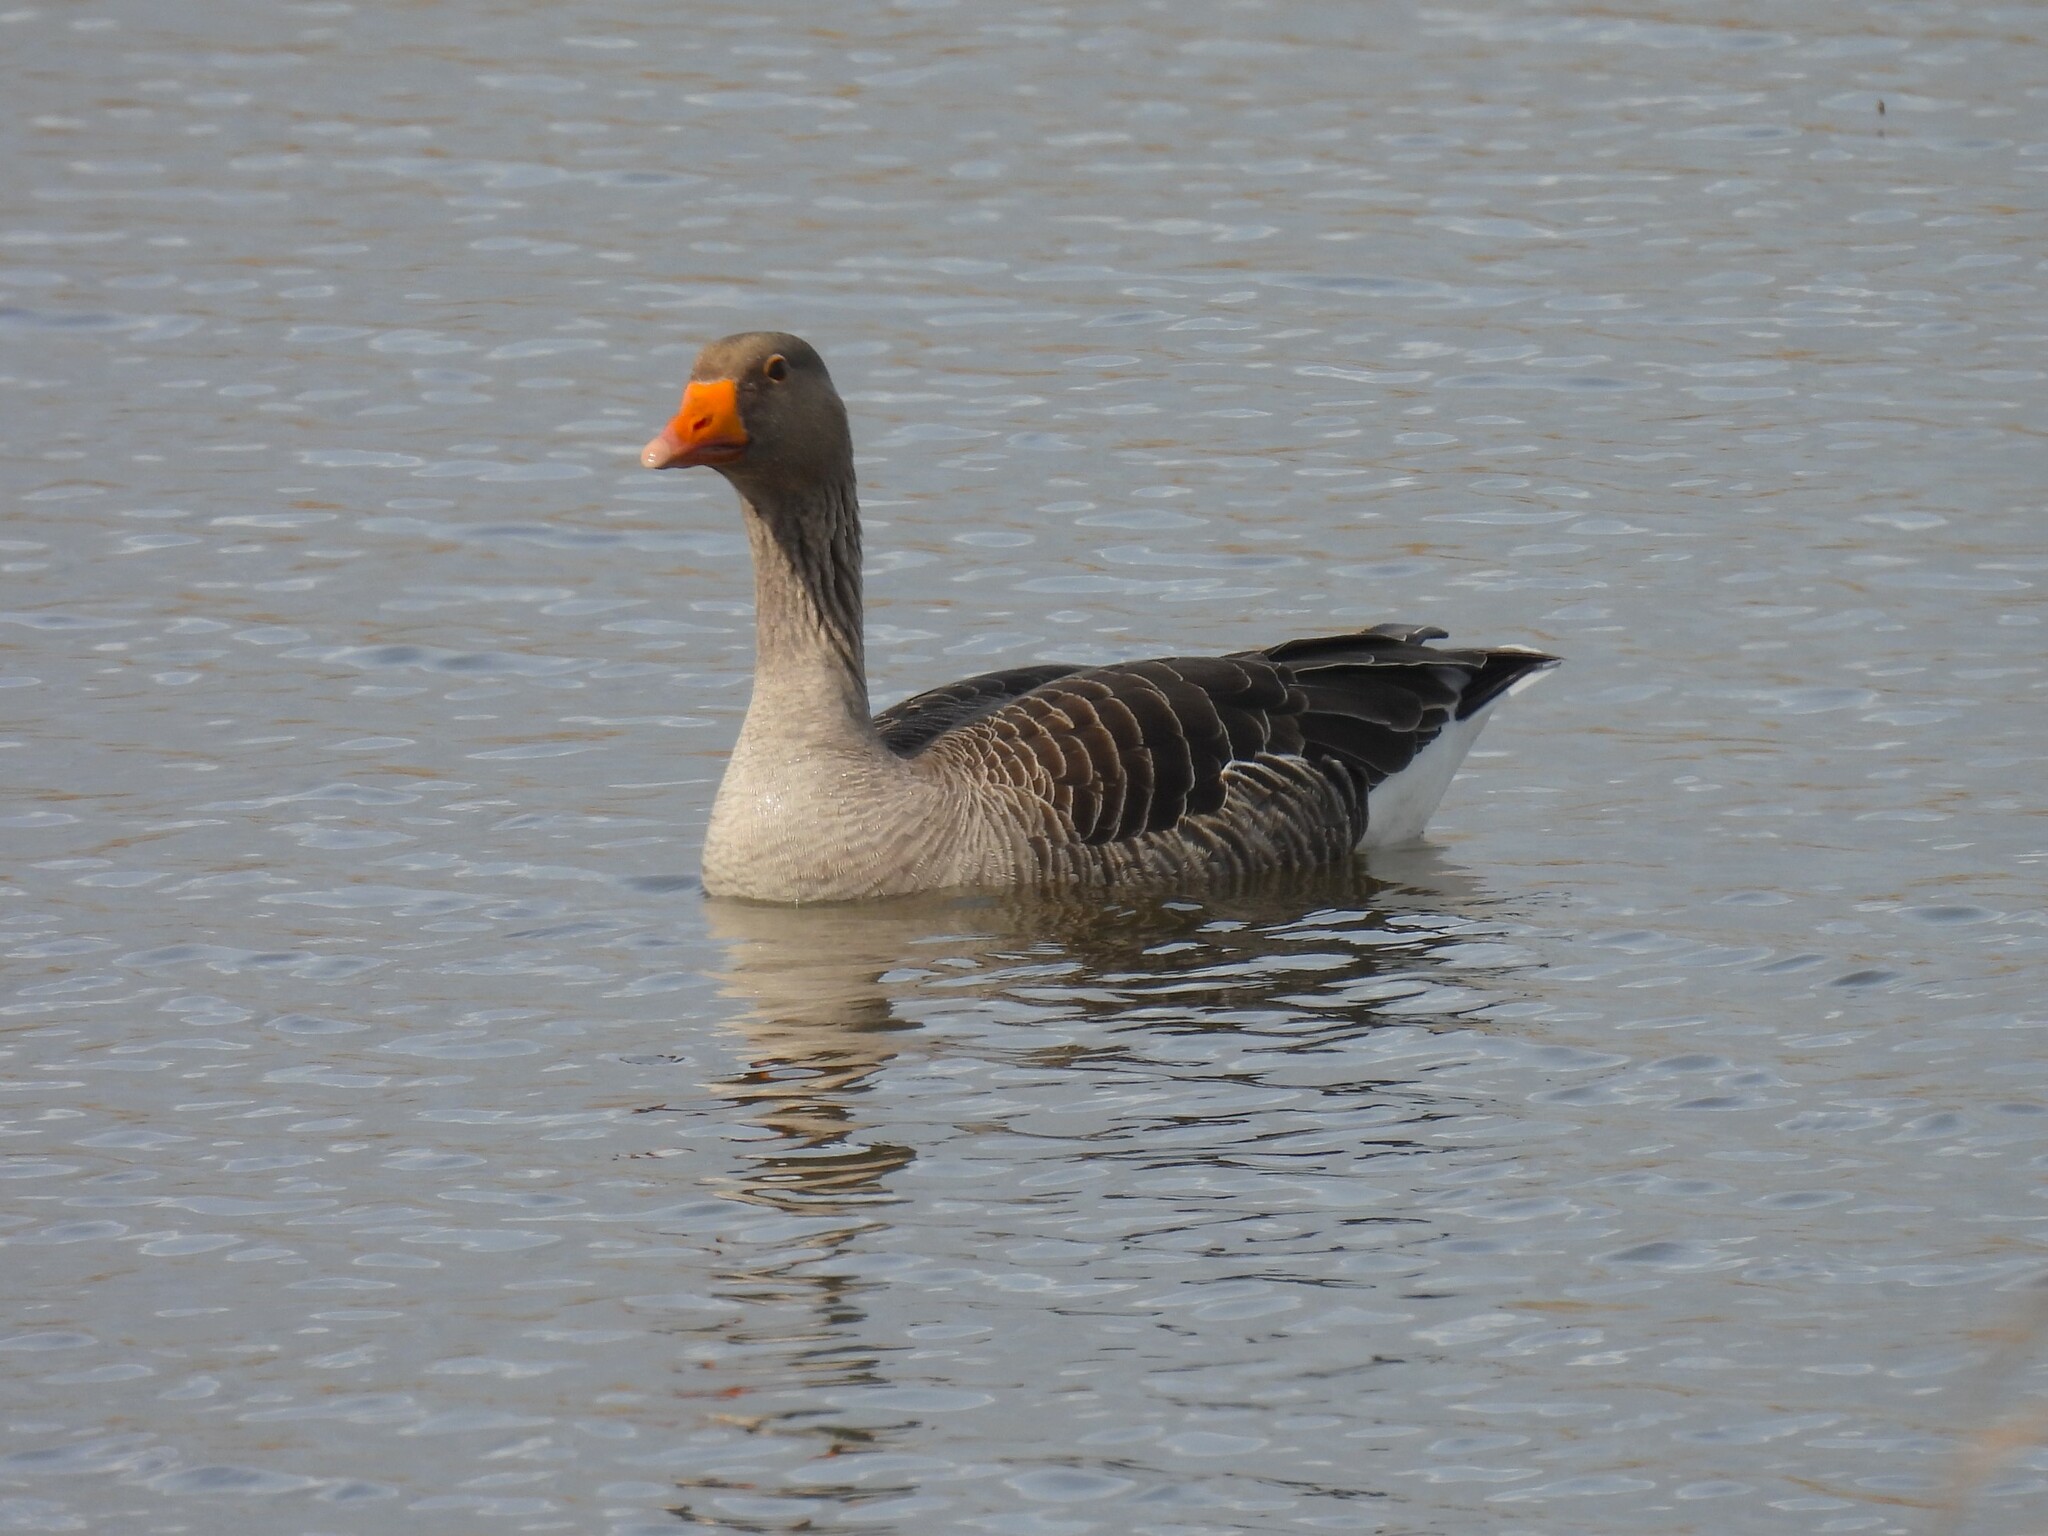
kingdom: Animalia
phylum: Chordata
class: Aves
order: Anseriformes
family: Anatidae
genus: Anser
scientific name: Anser anser
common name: Greylag goose
